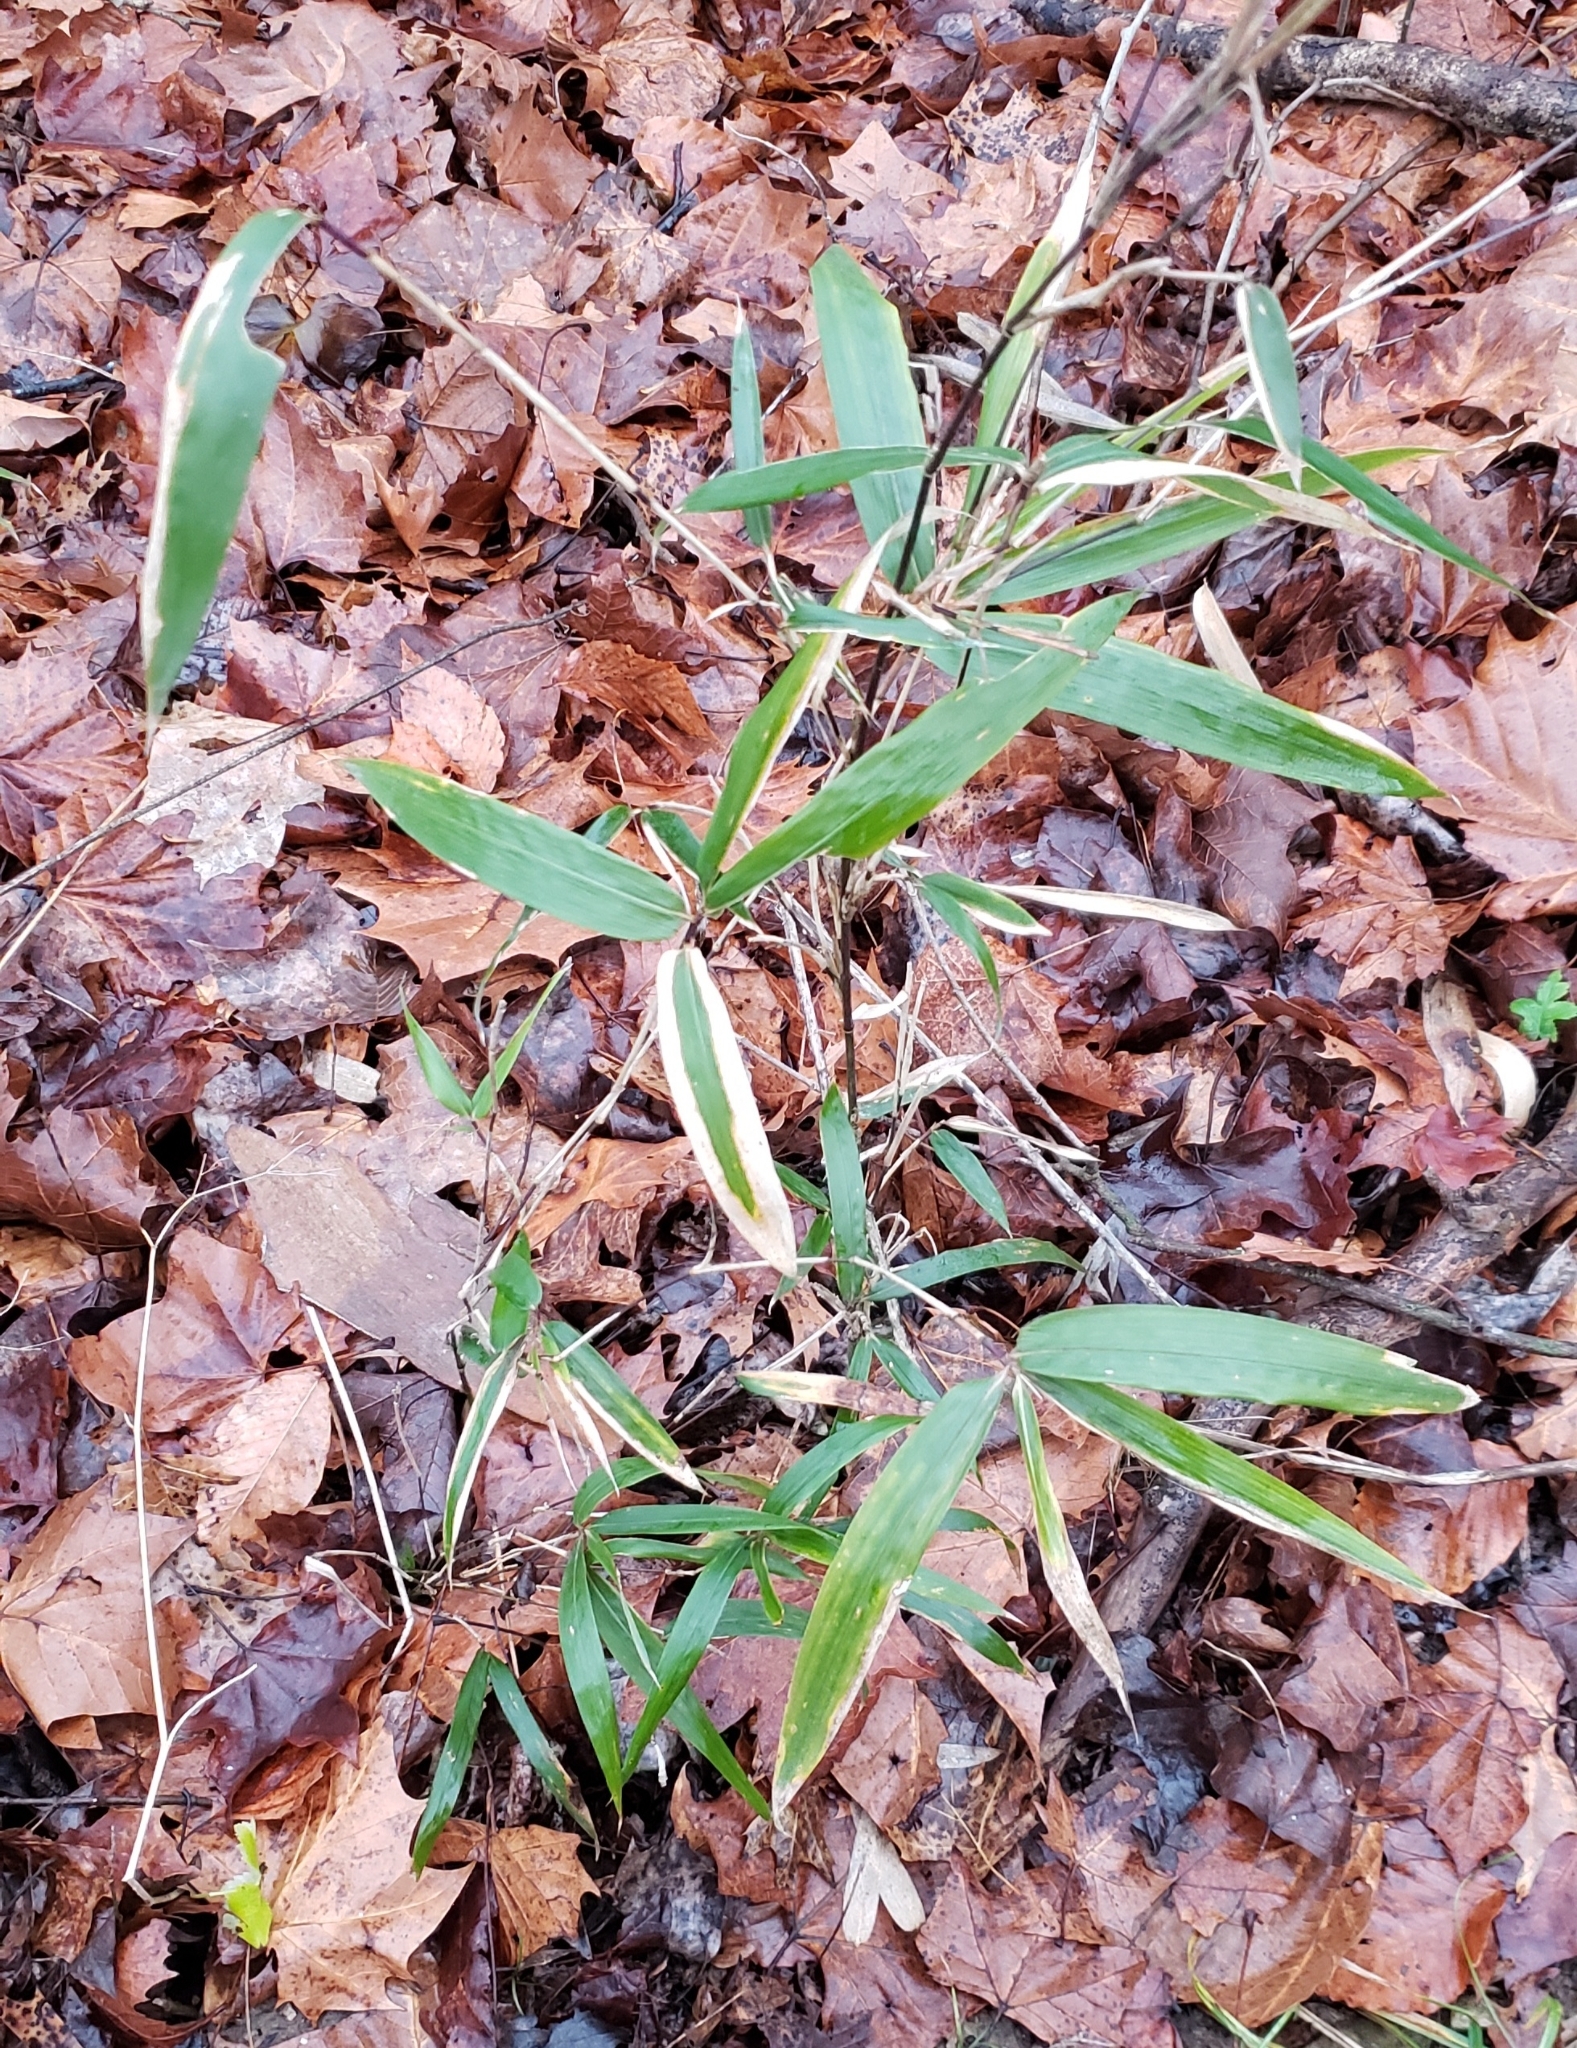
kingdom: Plantae
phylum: Tracheophyta
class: Liliopsida
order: Poales
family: Poaceae
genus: Arundinaria
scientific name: Arundinaria gigantea
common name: Giant cane
